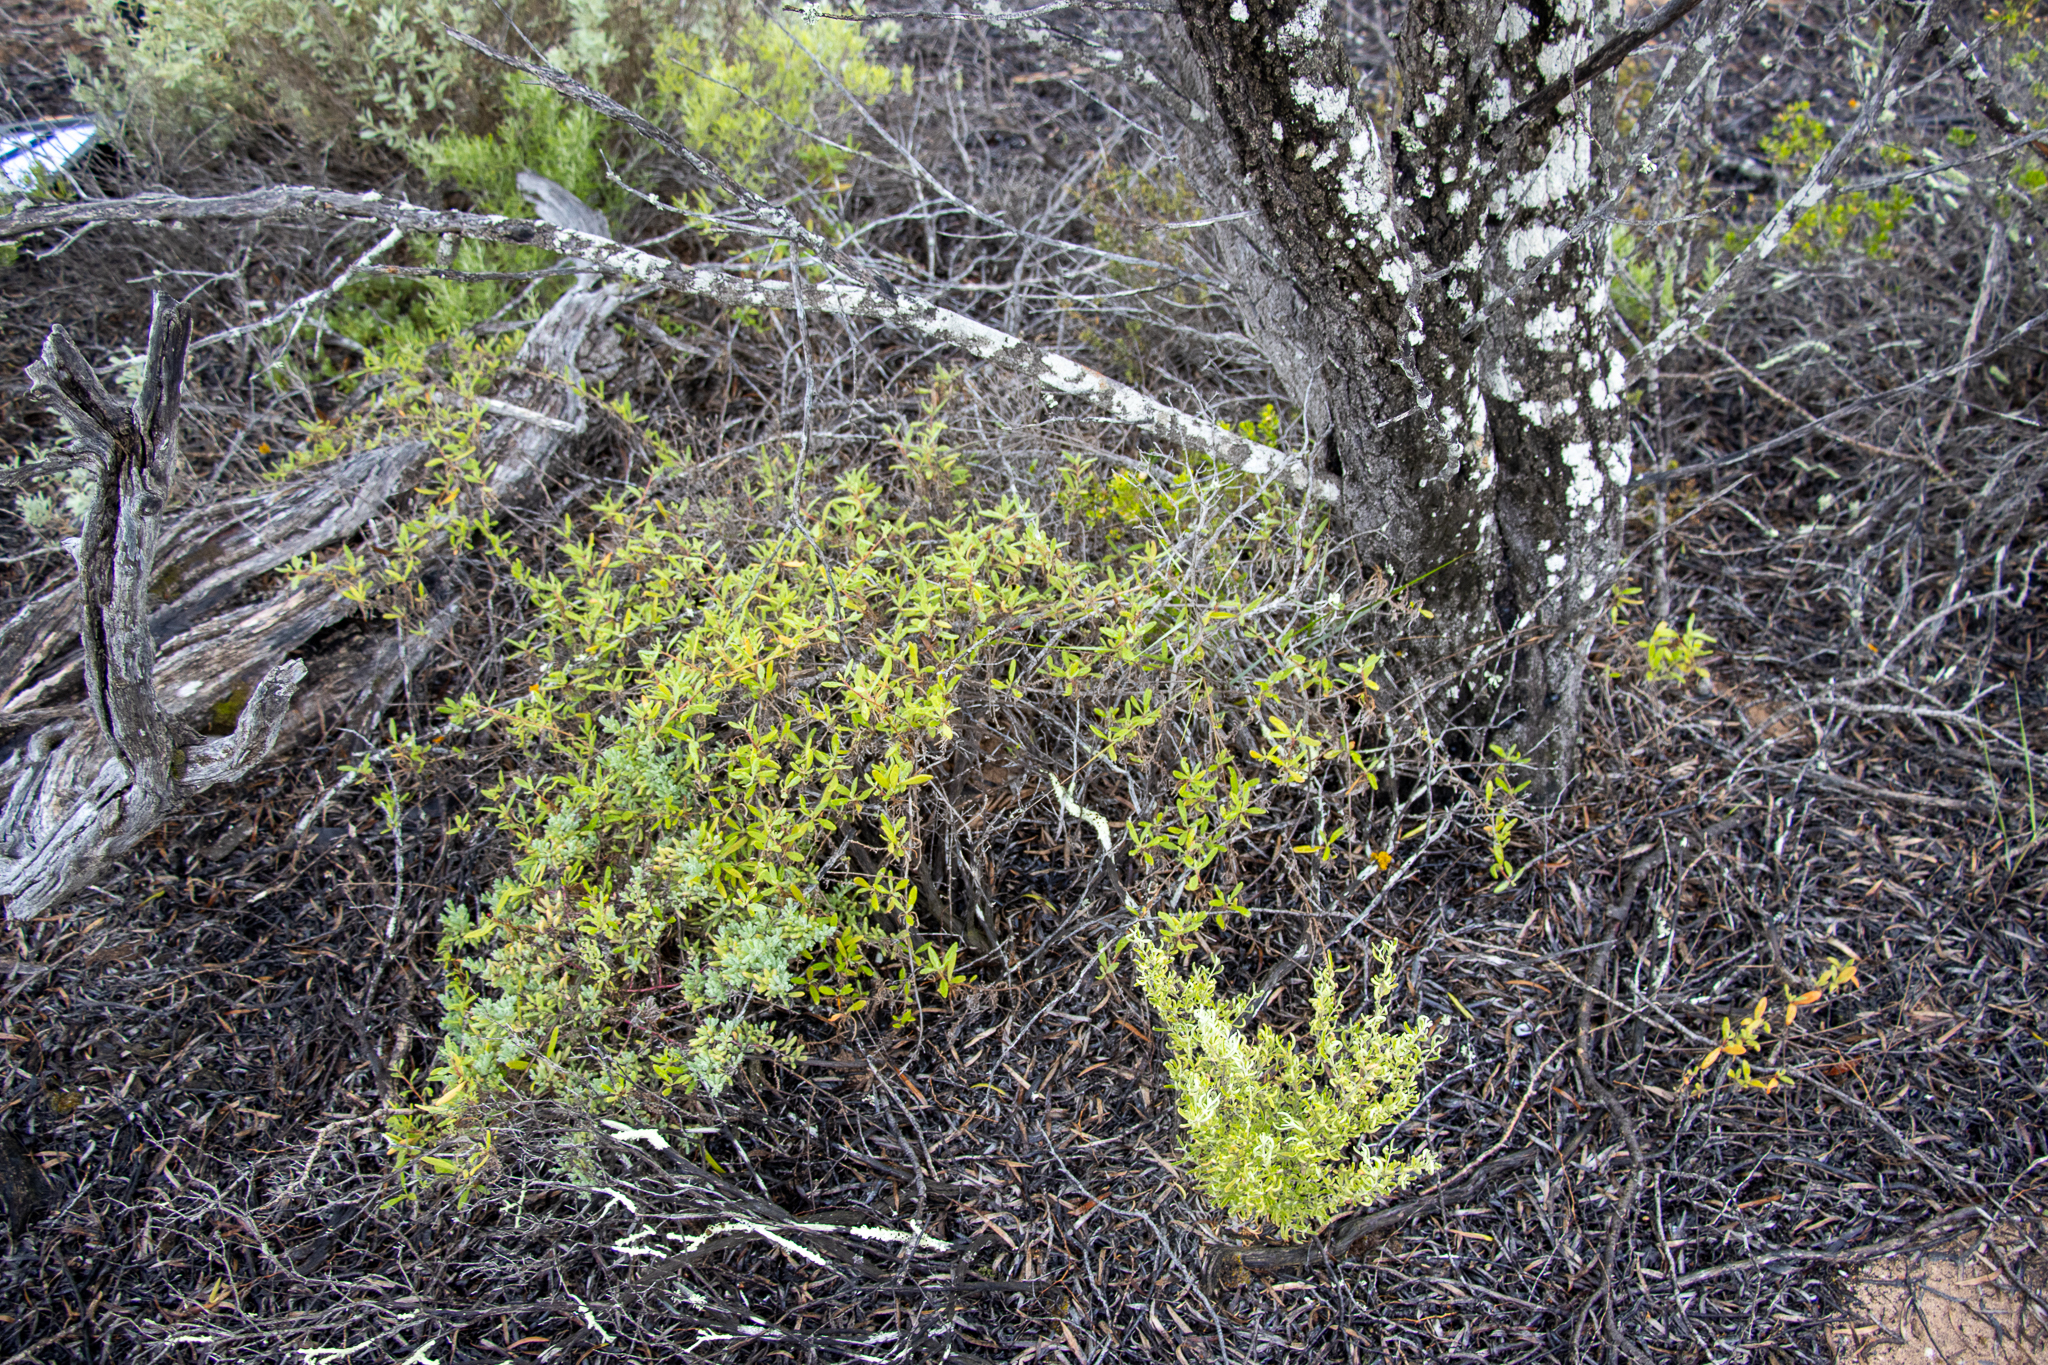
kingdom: Plantae
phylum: Tracheophyta
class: Magnoliopsida
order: Caryophyllales
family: Aizoaceae
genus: Tetragonia
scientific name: Tetragonia implexicoma
